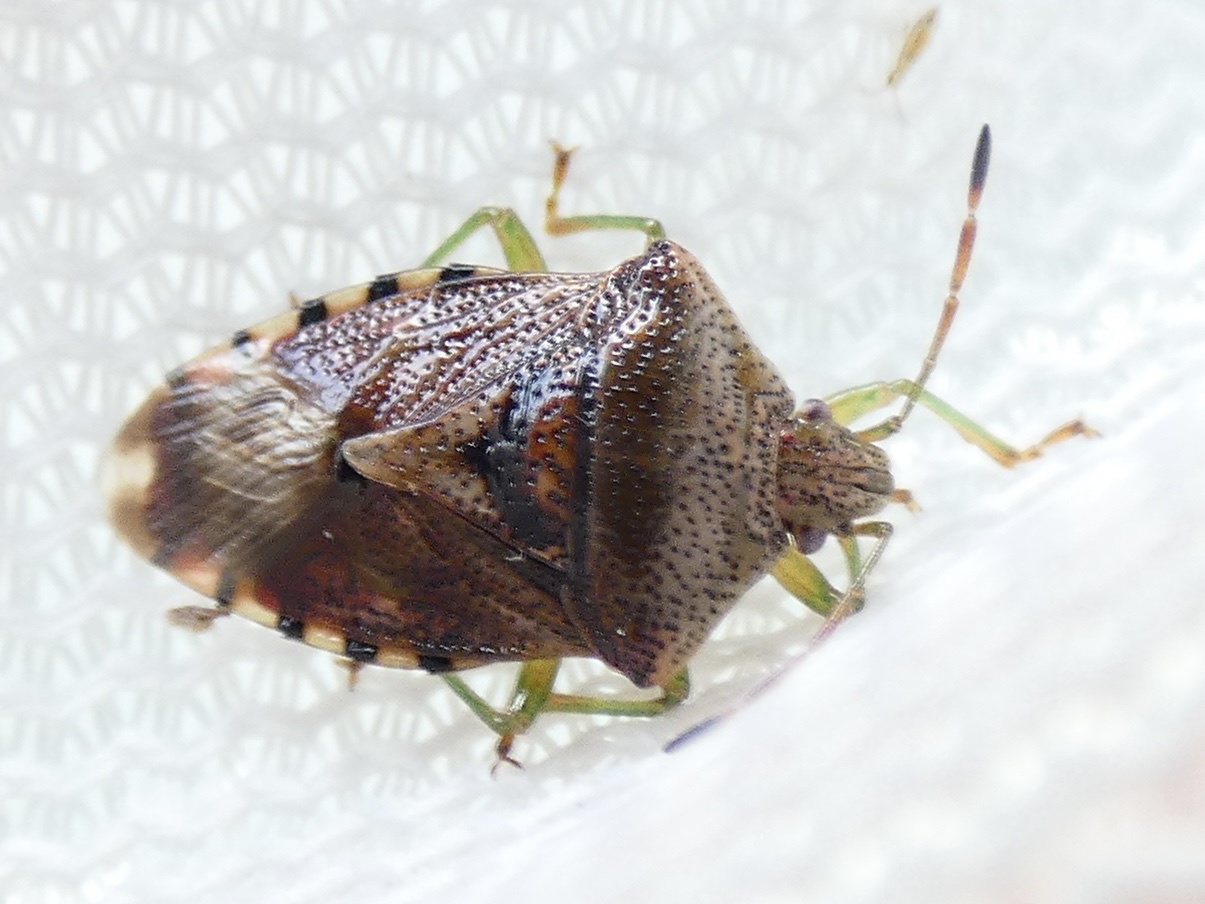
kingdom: Animalia
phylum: Arthropoda
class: Insecta
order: Hemiptera
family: Acanthosomatidae
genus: Elasmucha
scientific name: Elasmucha grisea
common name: Parent bug
